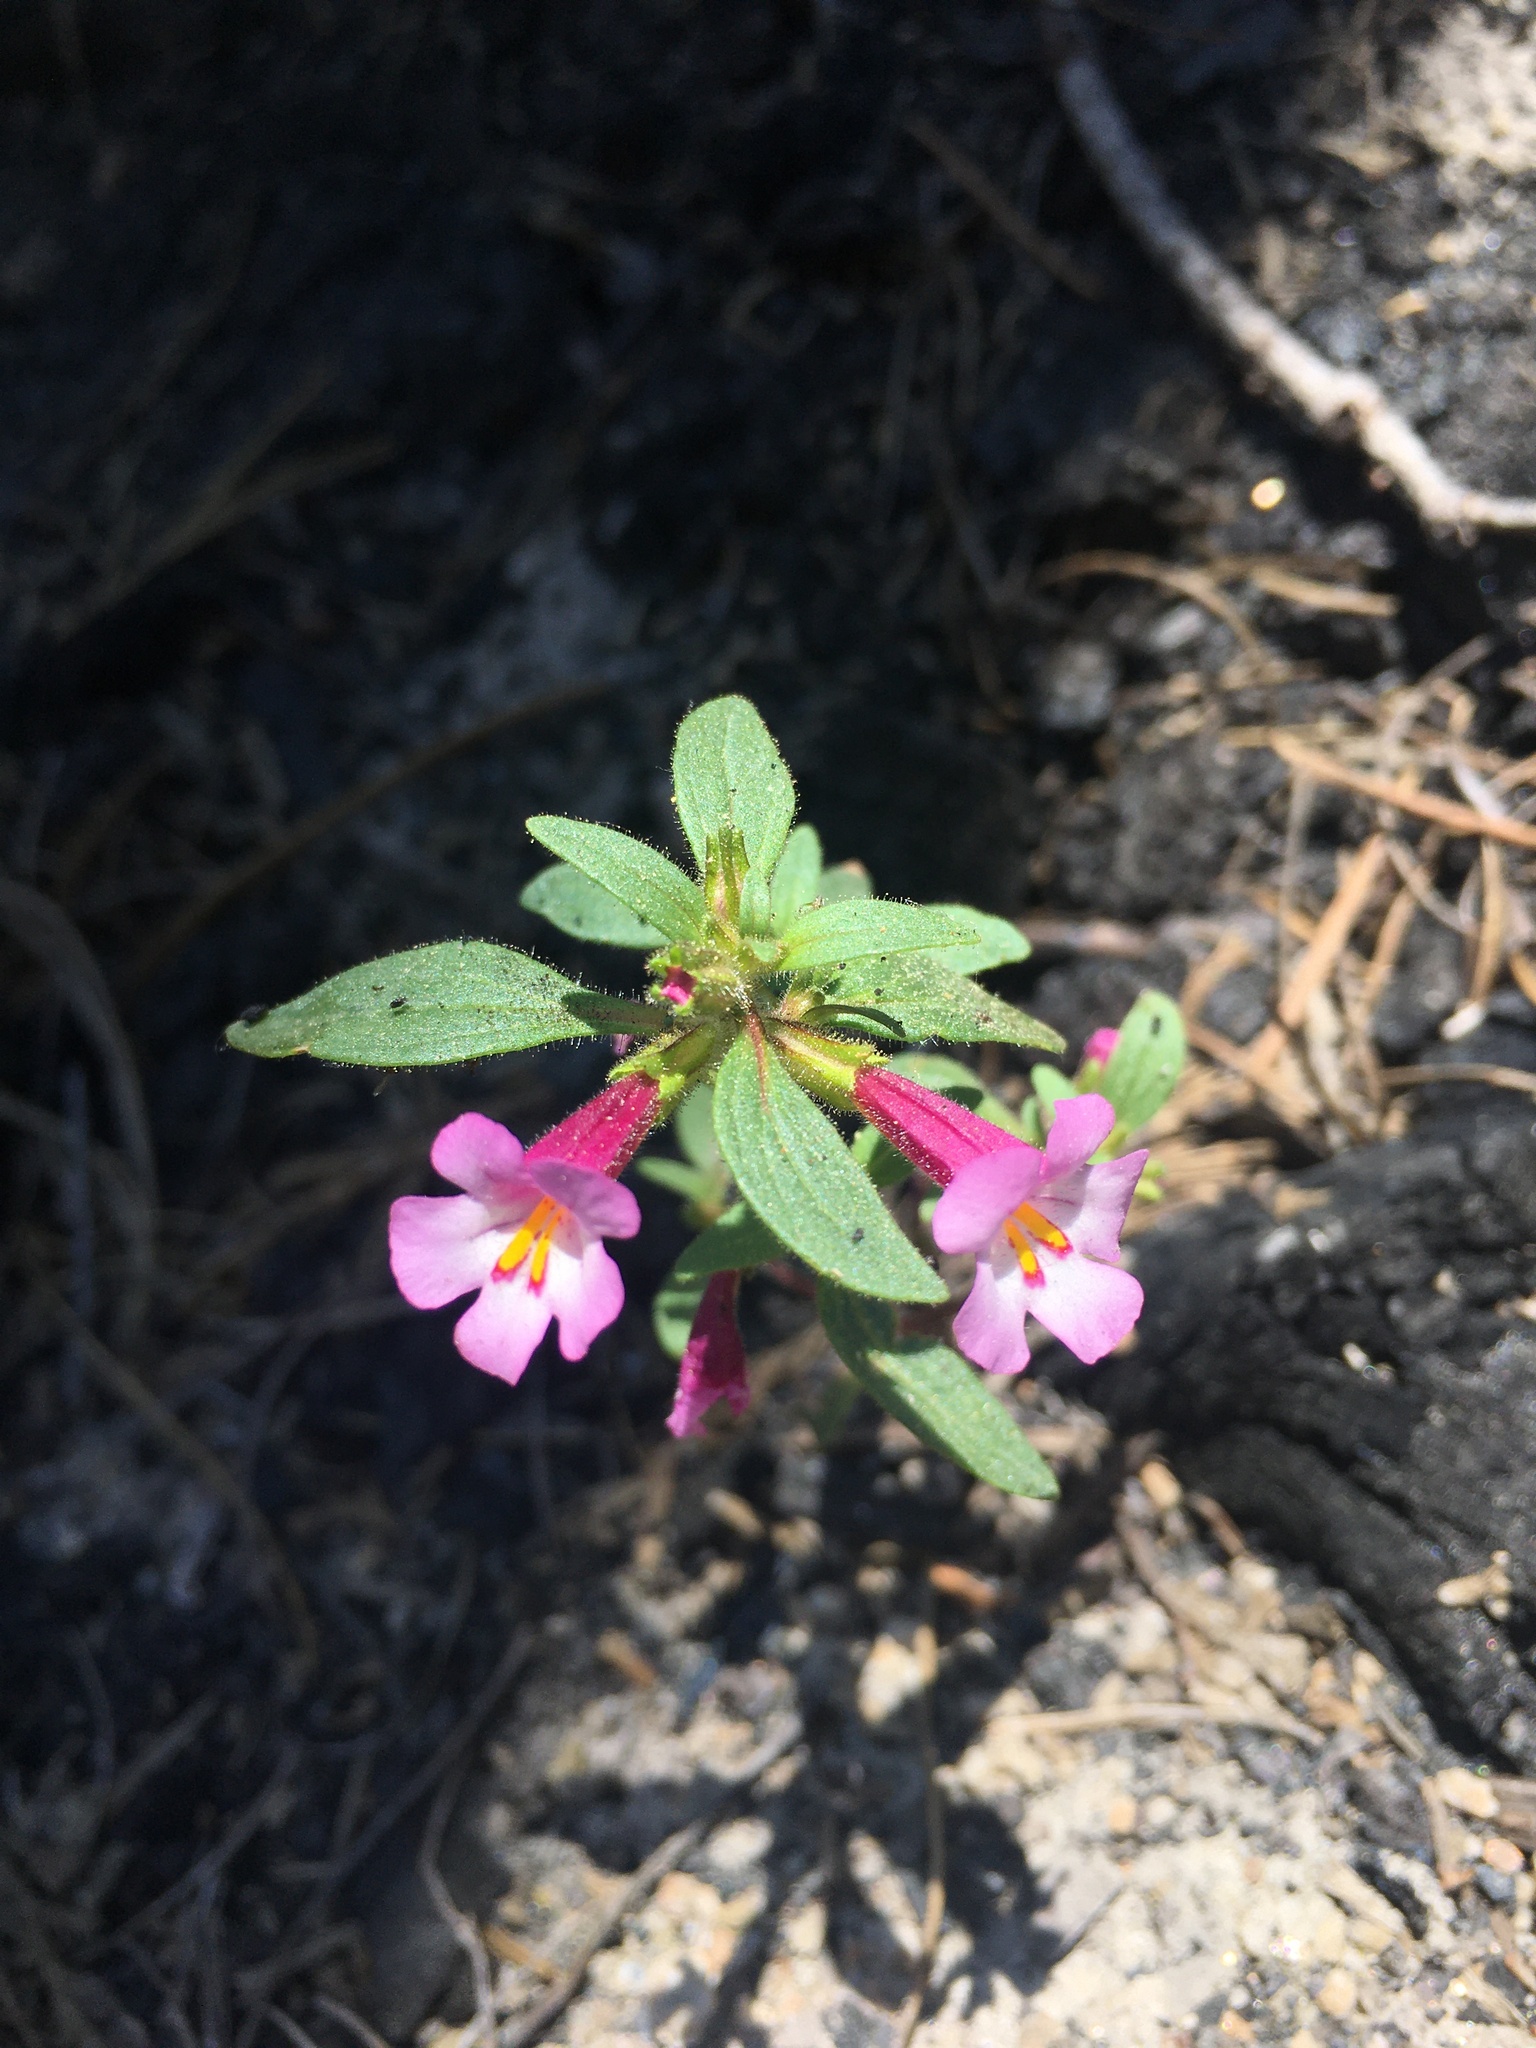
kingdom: Plantae
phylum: Tracheophyta
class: Magnoliopsida
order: Lamiales
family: Phrymaceae
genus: Diplacus
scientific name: Diplacus torreyi
